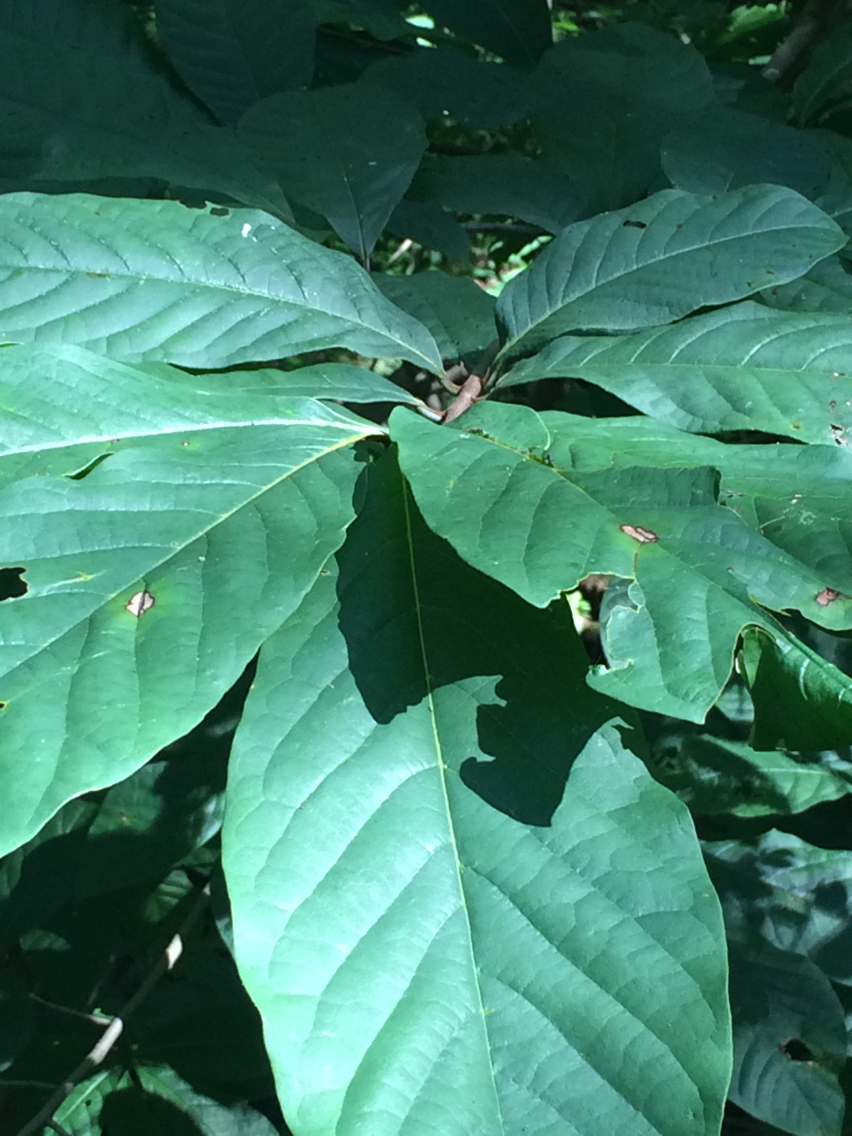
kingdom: Plantae
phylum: Tracheophyta
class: Magnoliopsida
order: Magnoliales
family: Annonaceae
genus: Asimina
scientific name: Asimina triloba
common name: Dog-banana
